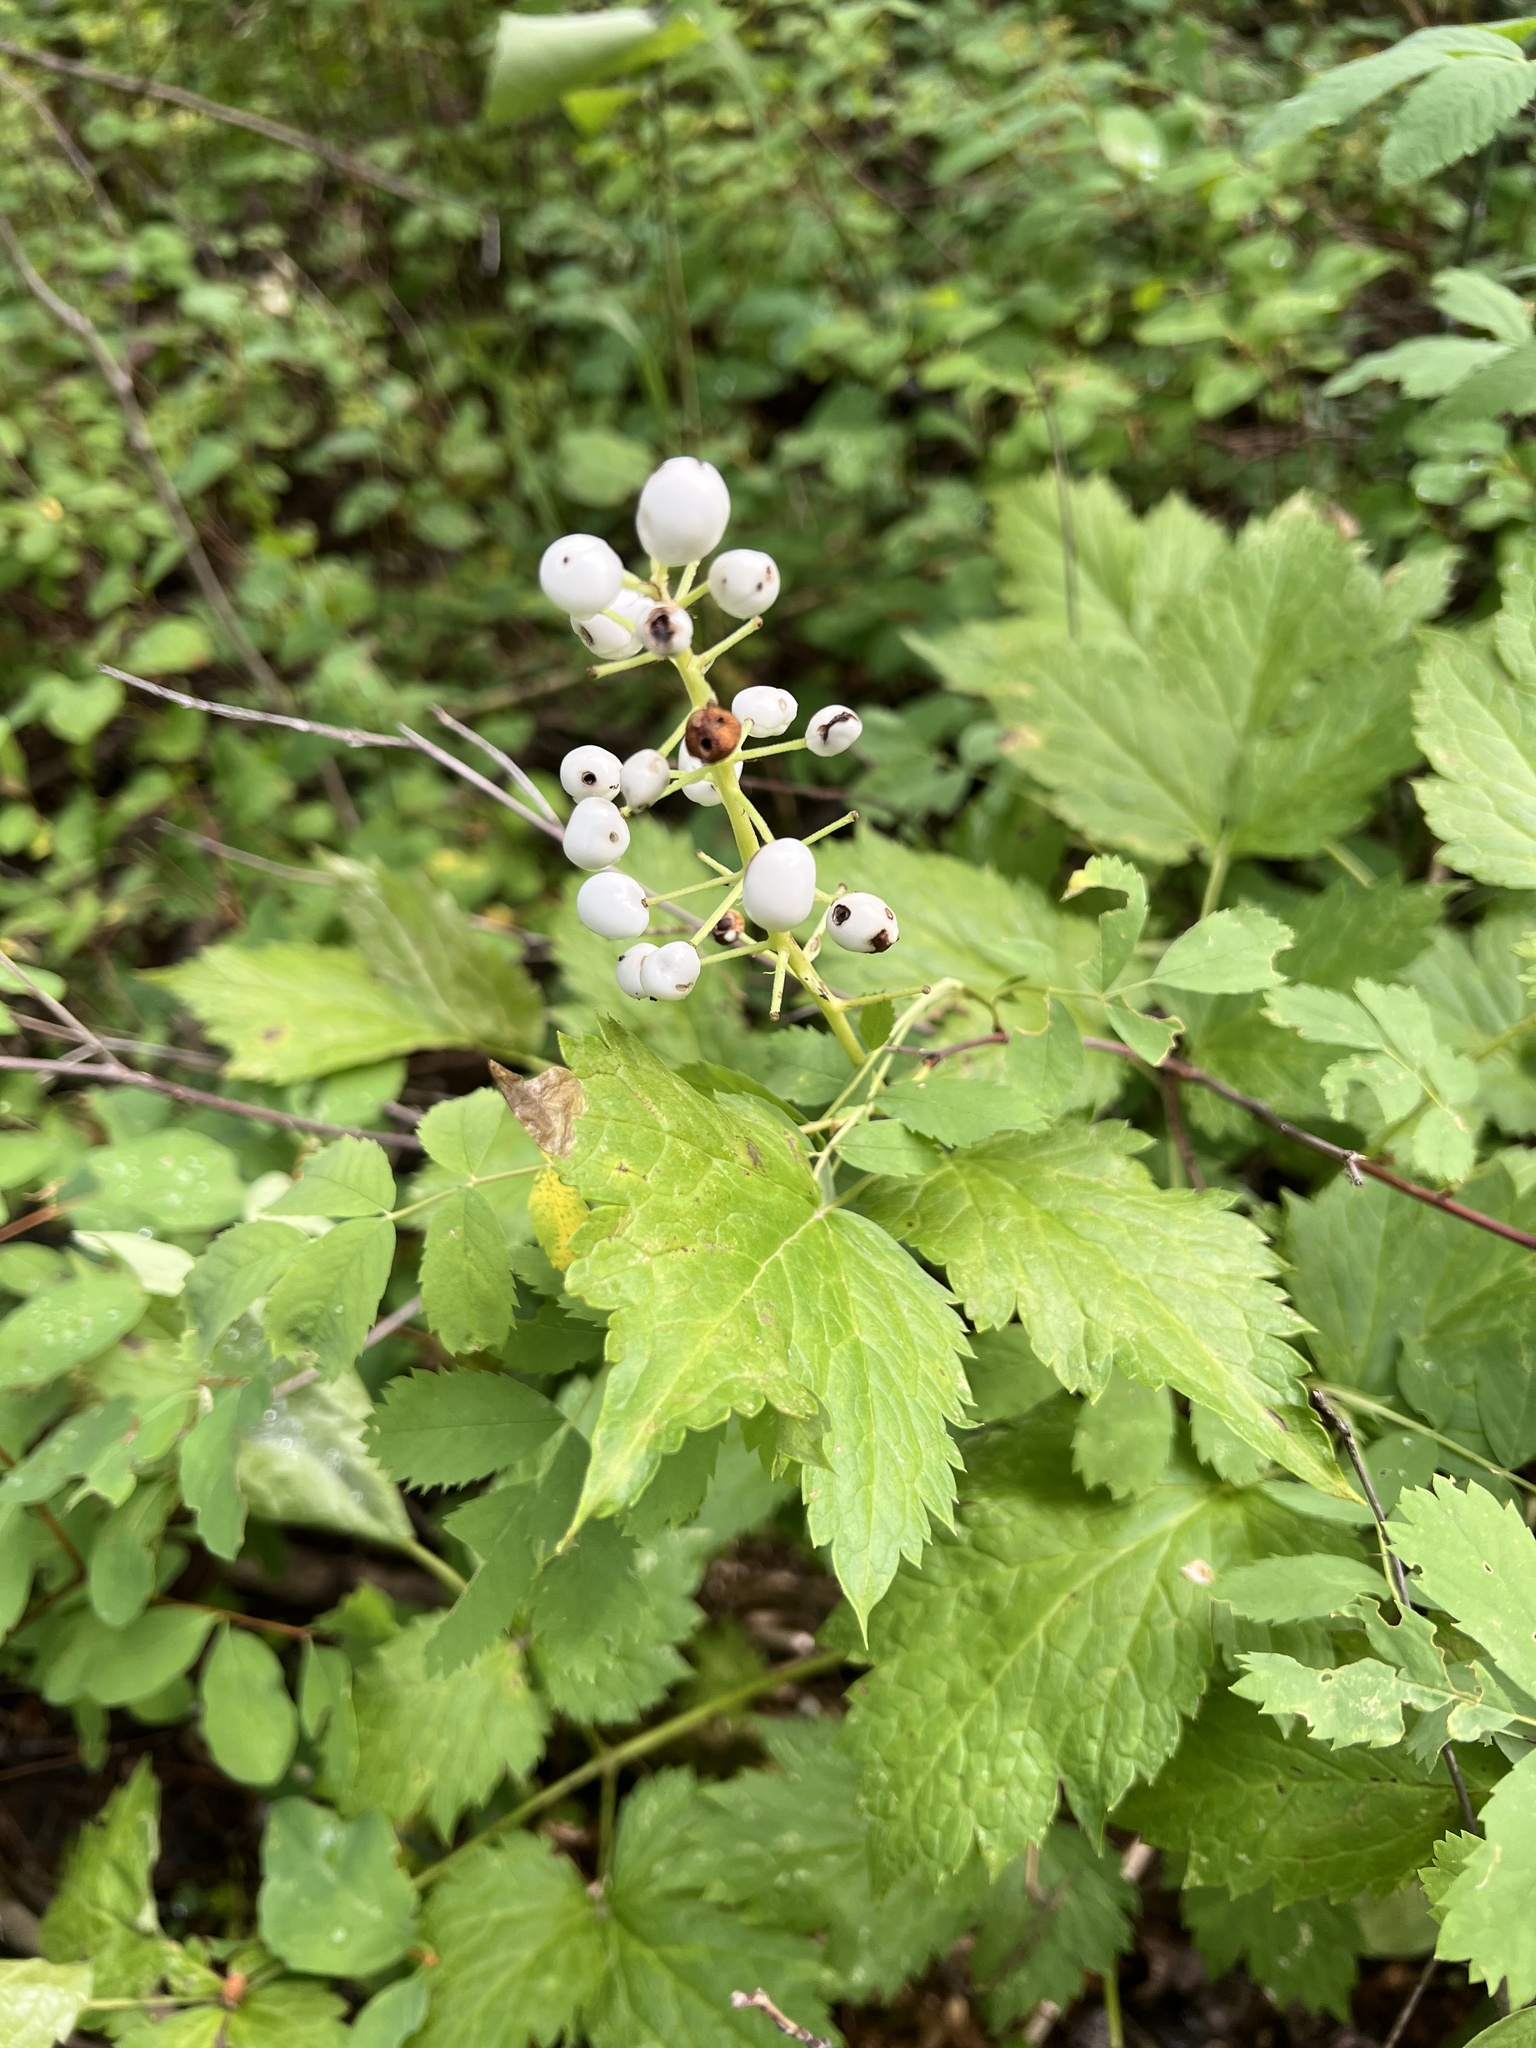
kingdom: Plantae
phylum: Tracheophyta
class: Magnoliopsida
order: Ranunculales
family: Ranunculaceae
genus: Actaea
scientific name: Actaea rubra
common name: Red baneberry
